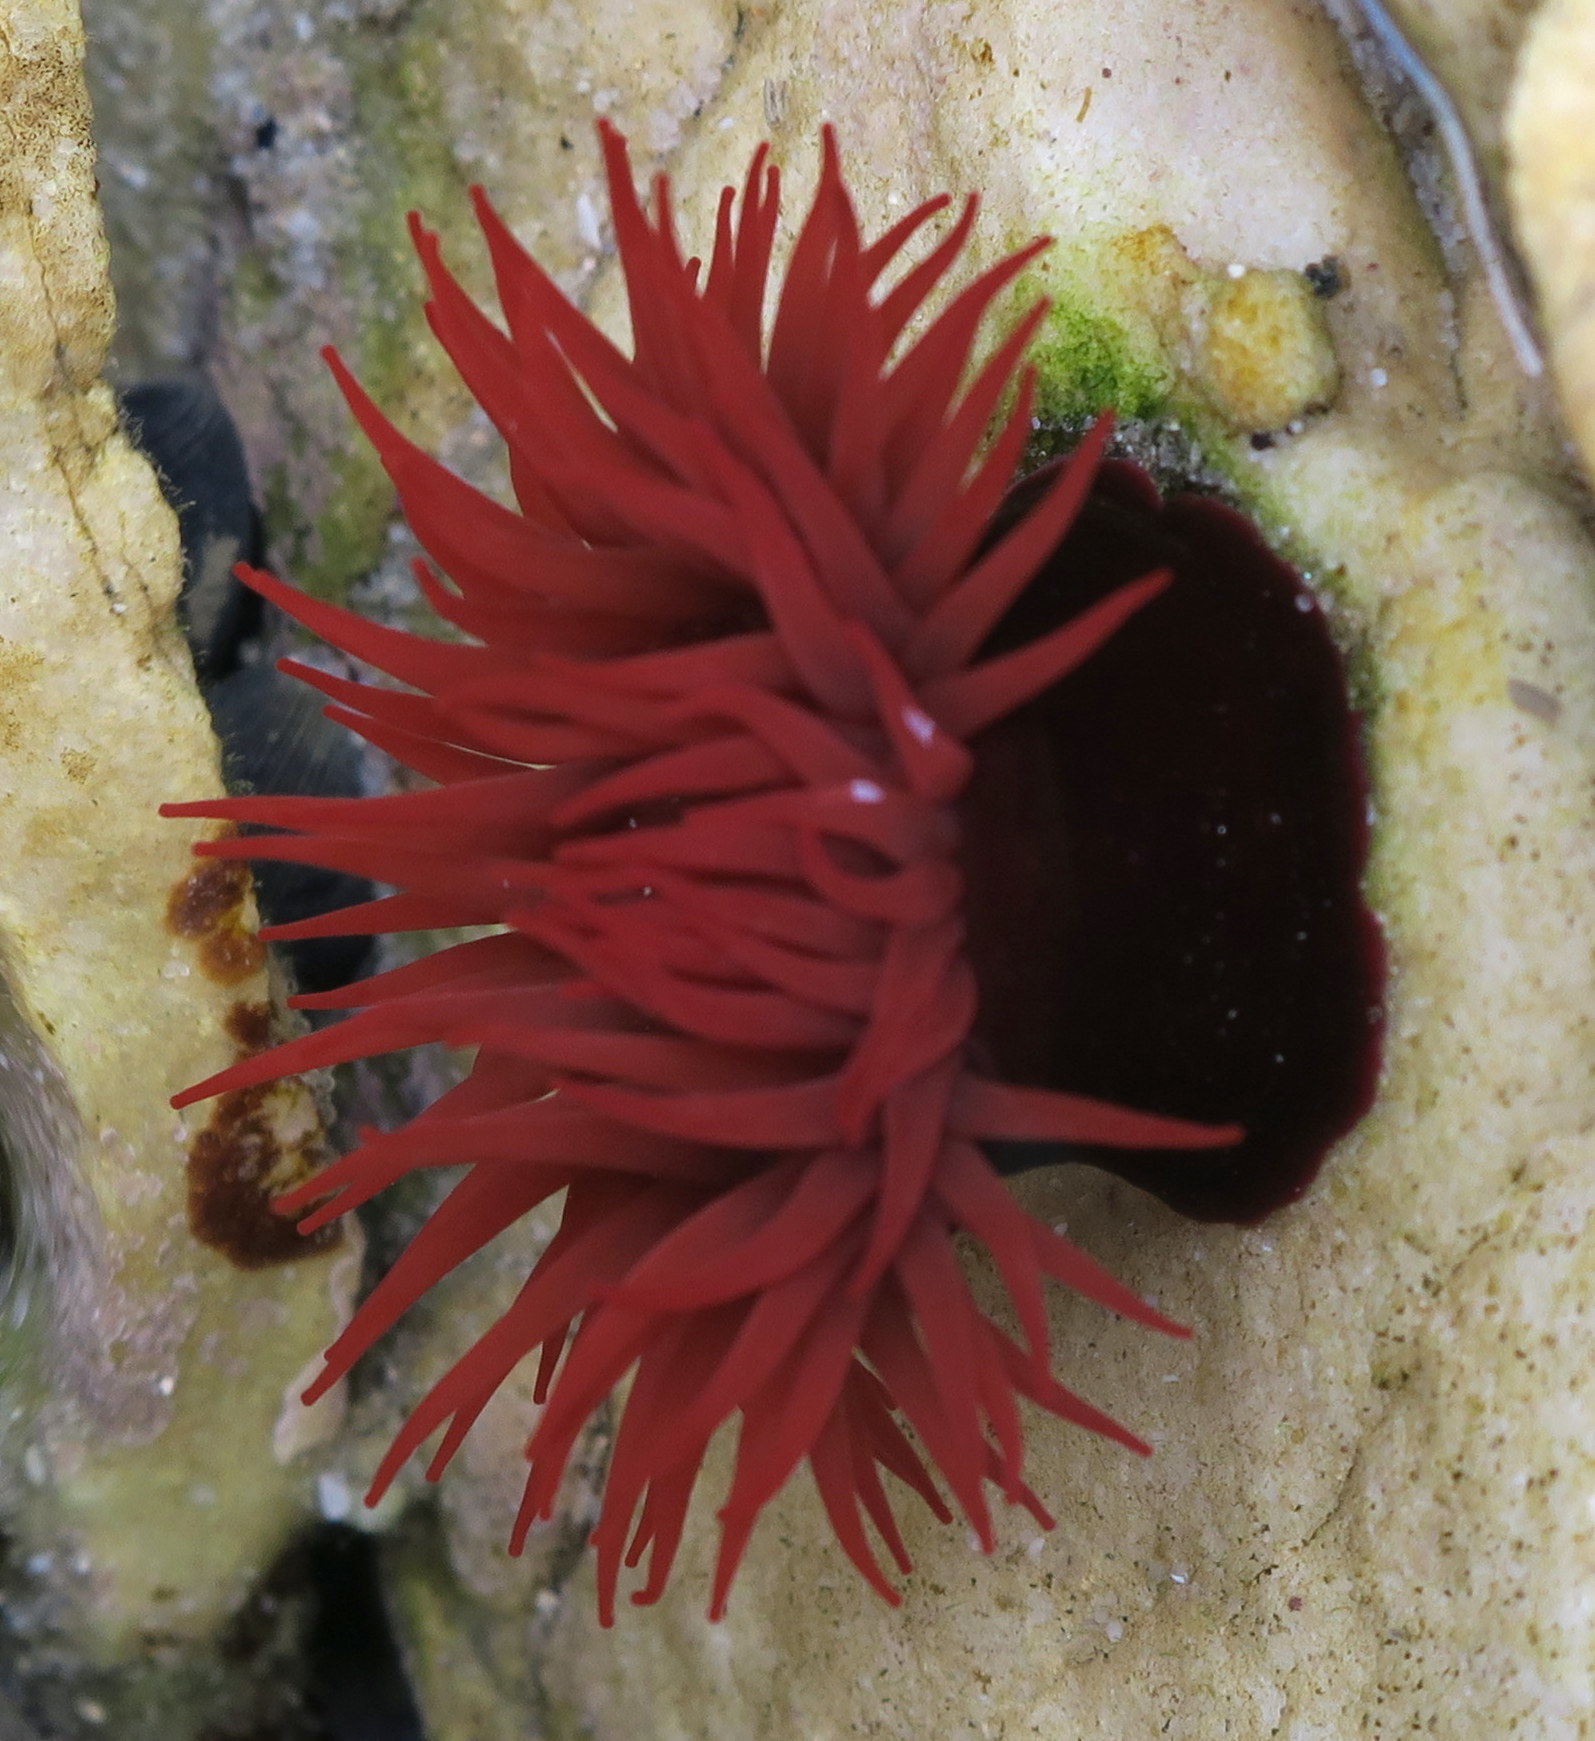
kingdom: Animalia
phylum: Cnidaria
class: Anthozoa
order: Actiniaria
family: Actiniidae
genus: Actinia
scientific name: Actinia tenebrosa
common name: Waratah anemone
